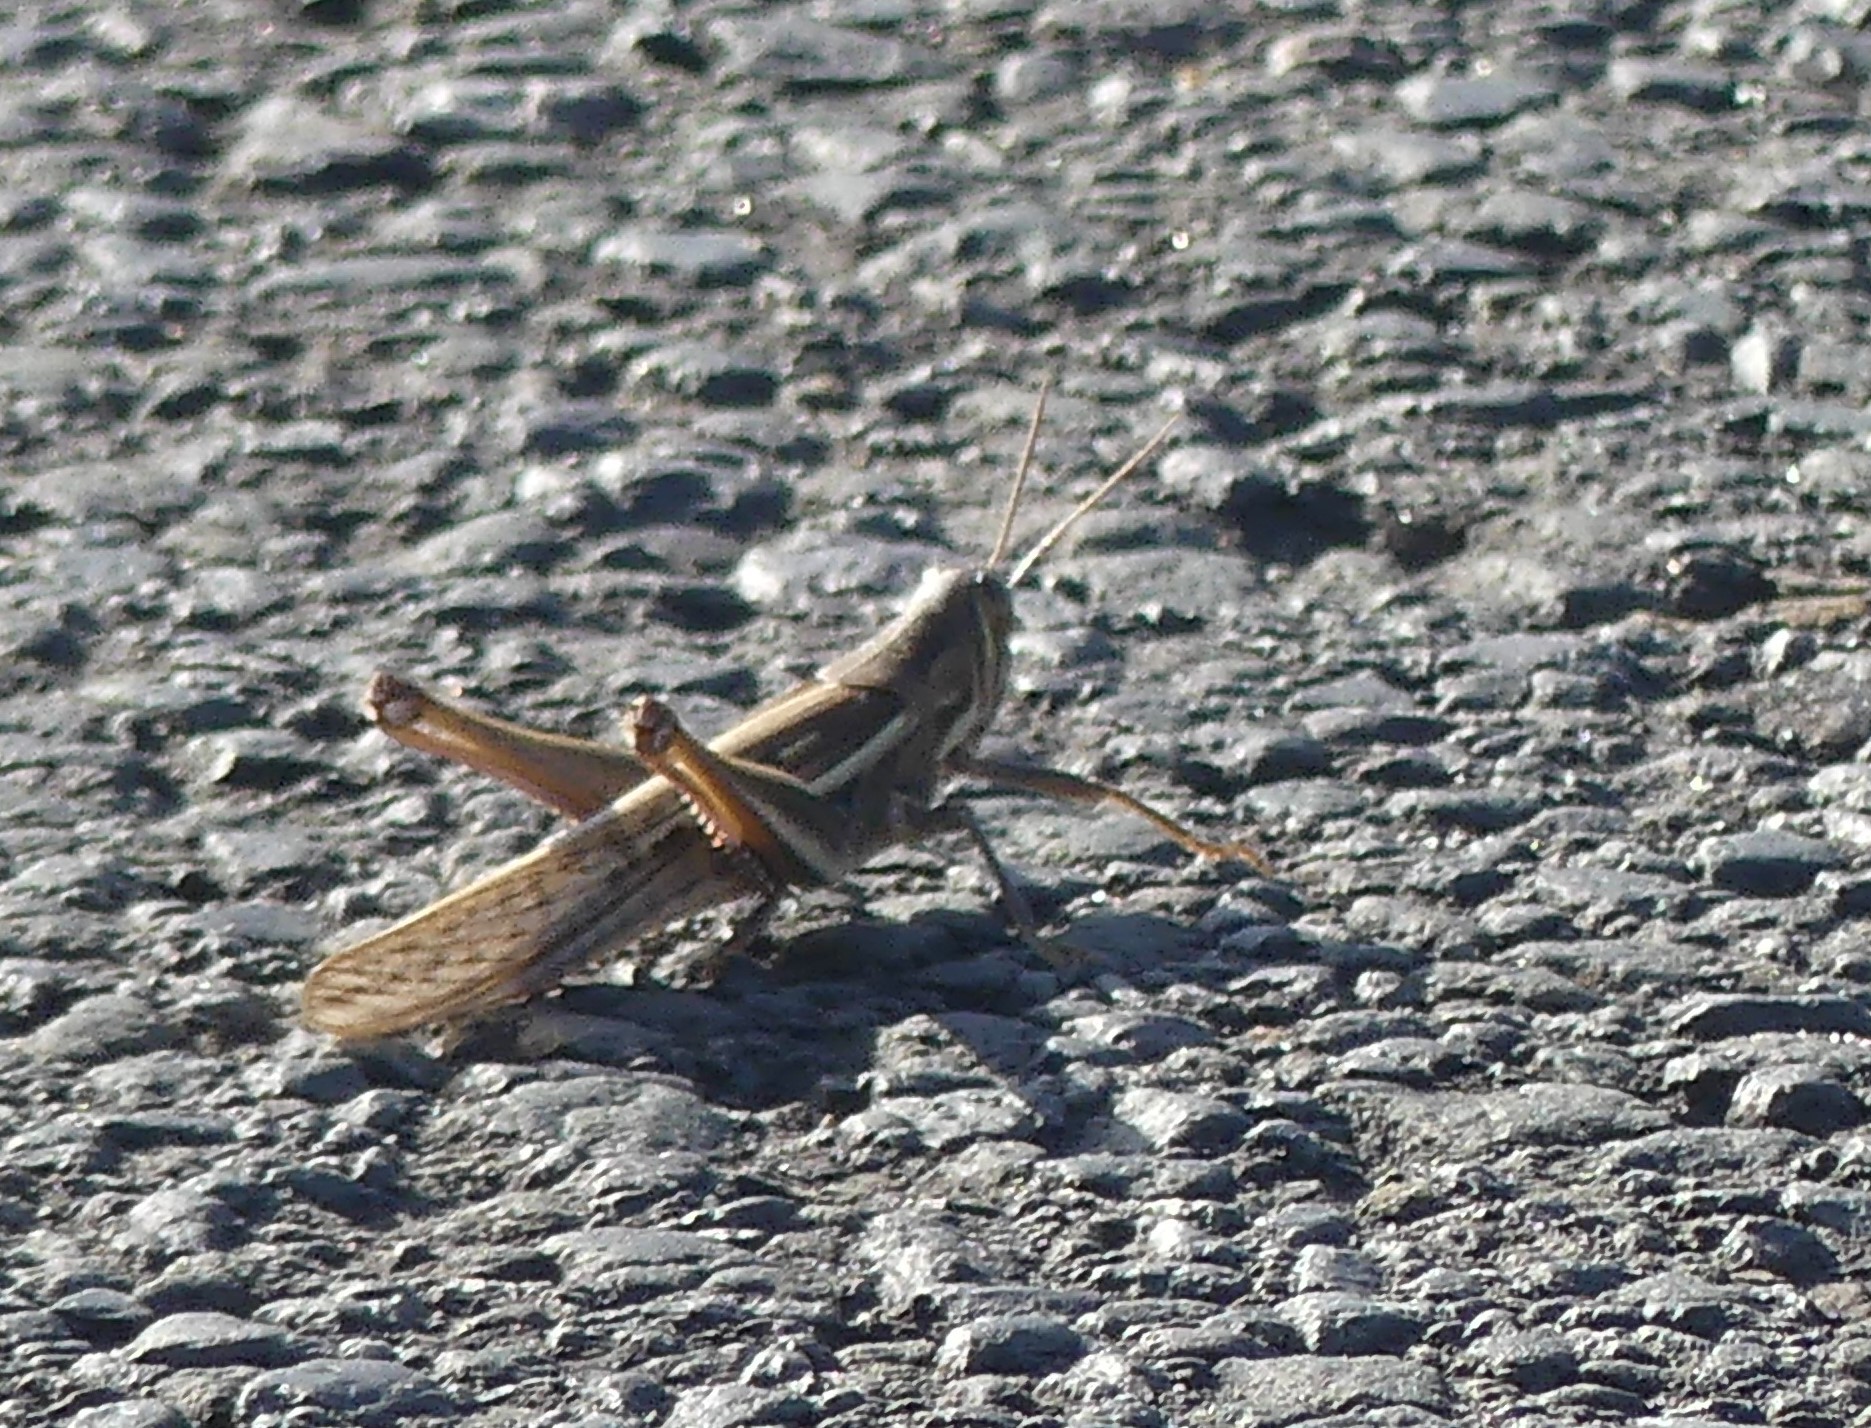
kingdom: Animalia
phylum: Arthropoda
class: Insecta
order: Orthoptera
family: Acrididae
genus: Austracris
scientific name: Austracris guttulosa
